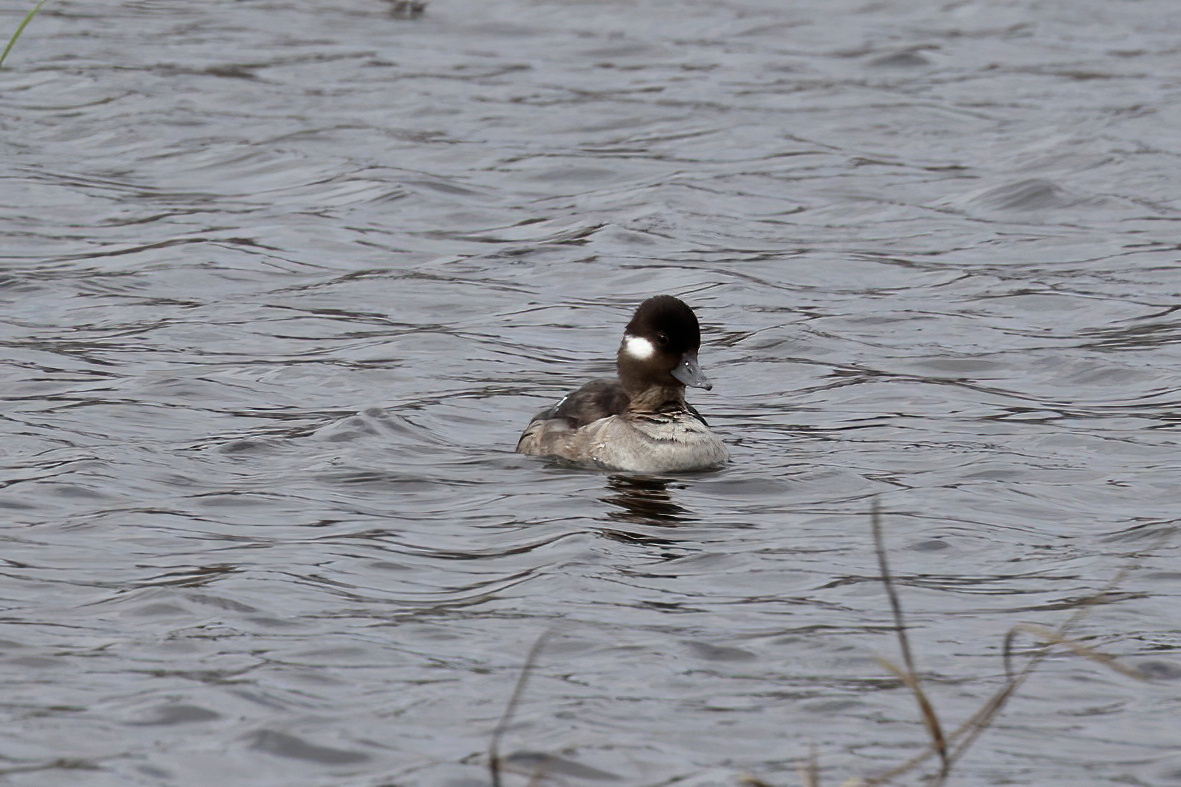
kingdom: Animalia
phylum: Chordata
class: Aves
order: Anseriformes
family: Anatidae
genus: Bucephala
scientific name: Bucephala albeola
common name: Bufflehead
